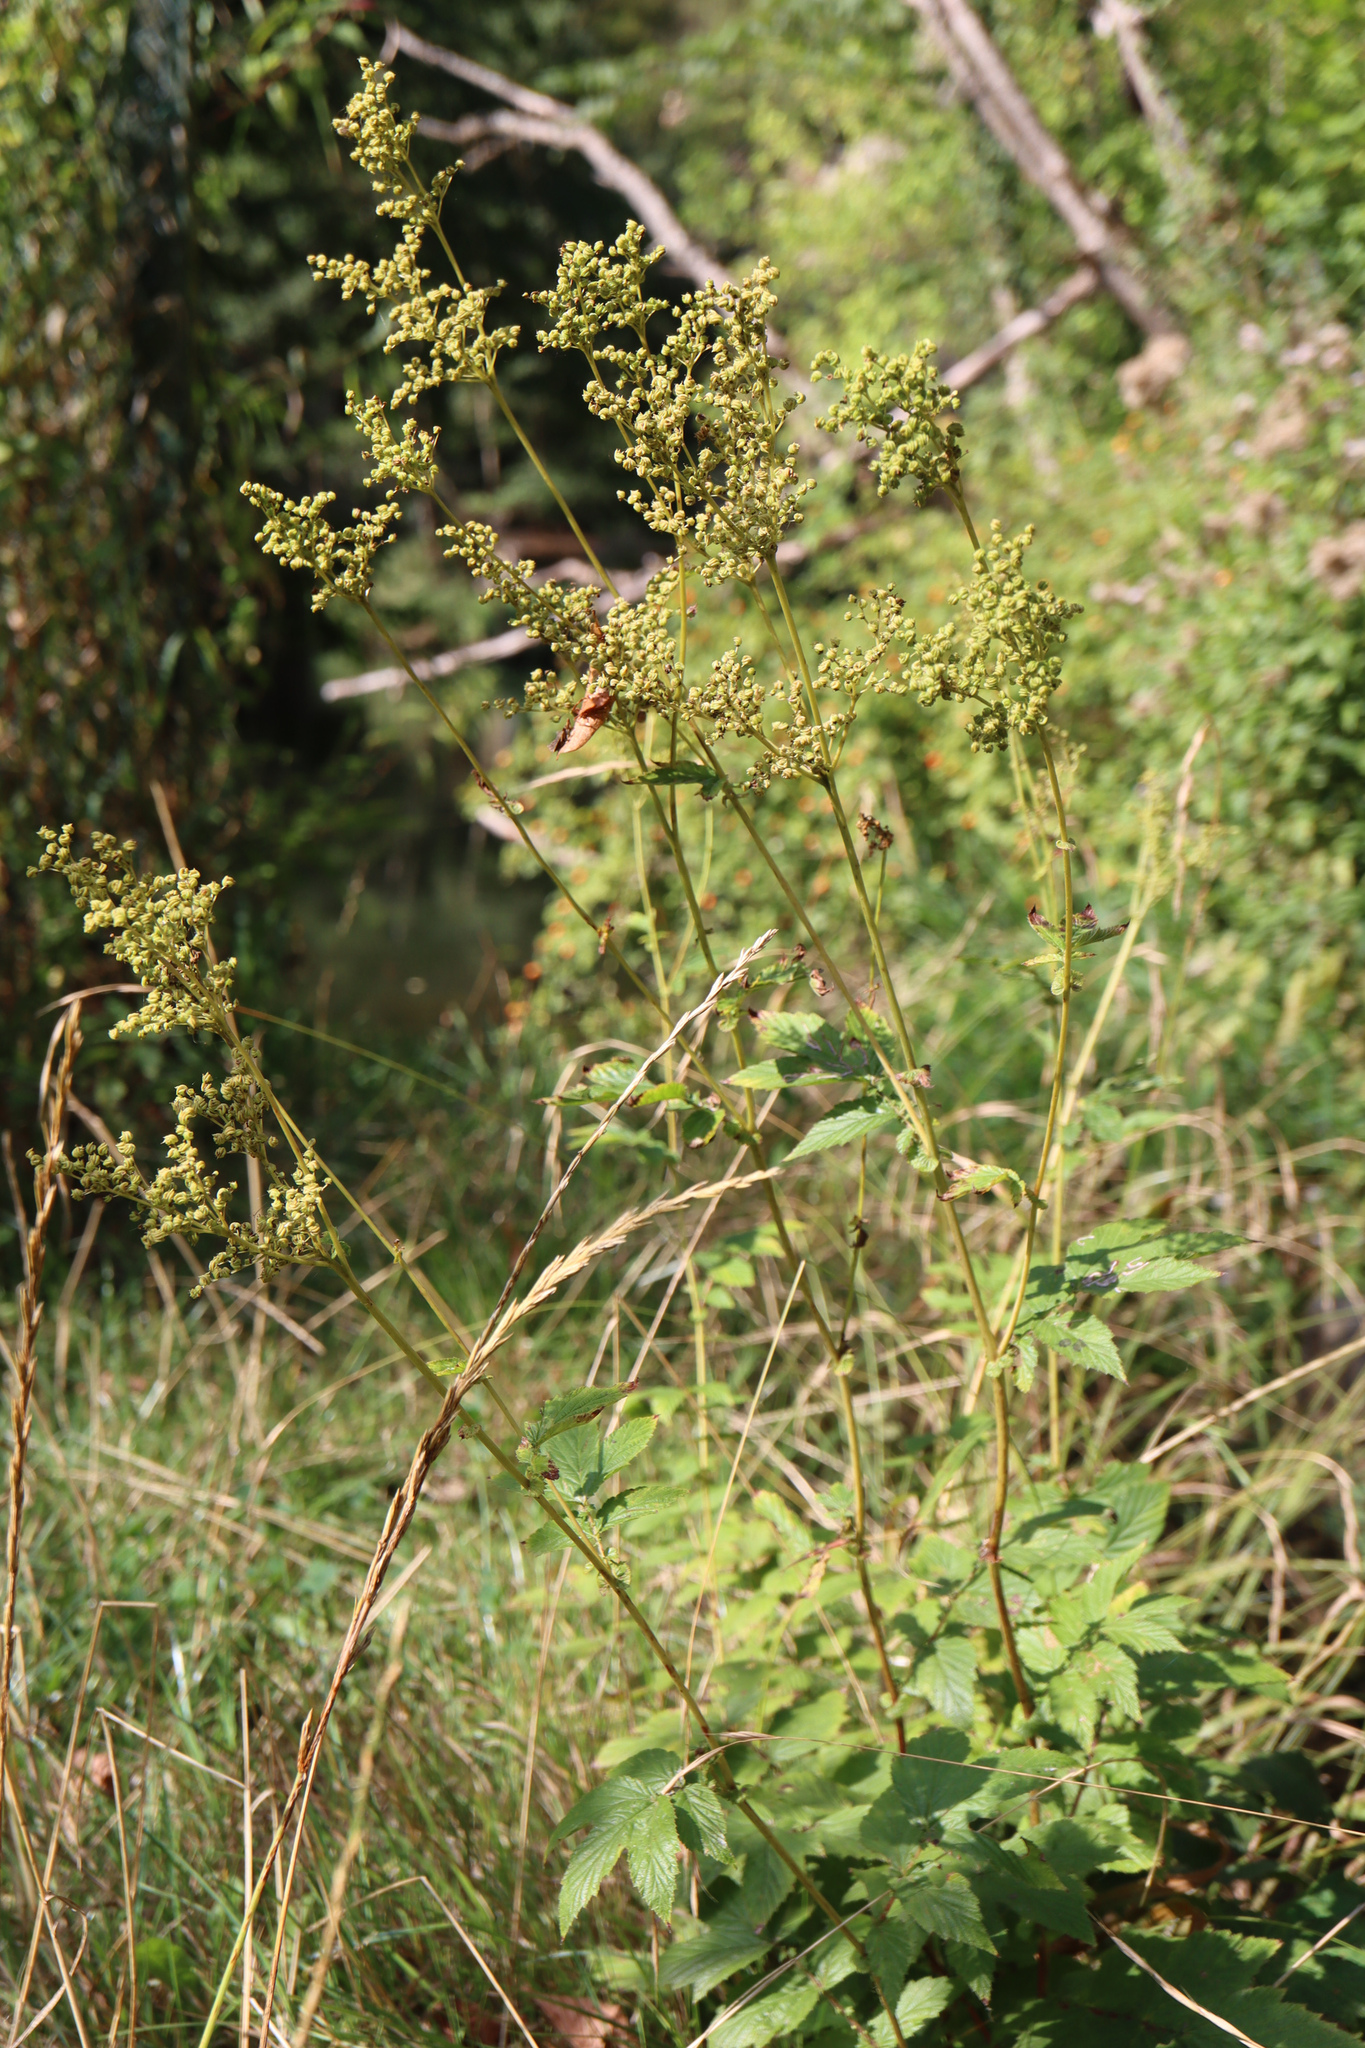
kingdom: Plantae
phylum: Tracheophyta
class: Magnoliopsida
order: Rosales
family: Rosaceae
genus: Filipendula
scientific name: Filipendula ulmaria
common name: Meadowsweet
